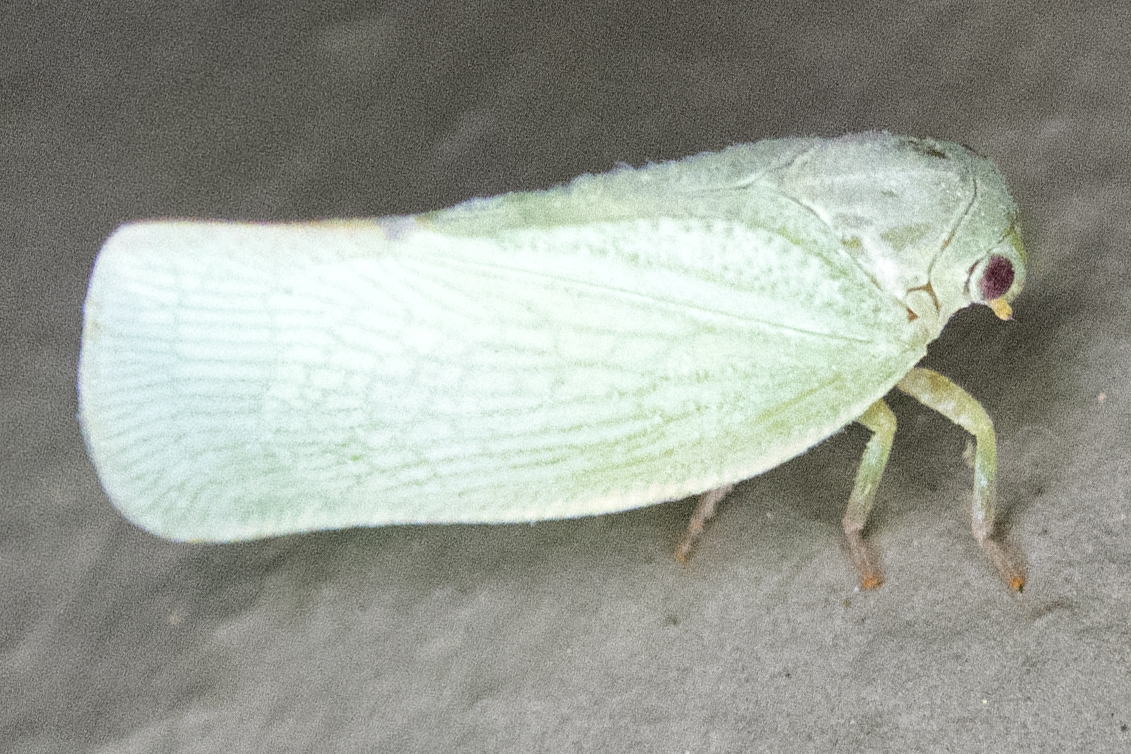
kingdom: Animalia
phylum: Arthropoda
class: Insecta
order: Hemiptera
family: Flatidae
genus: Flatormenis
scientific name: Flatormenis proxima
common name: Northern flatid planthopper
